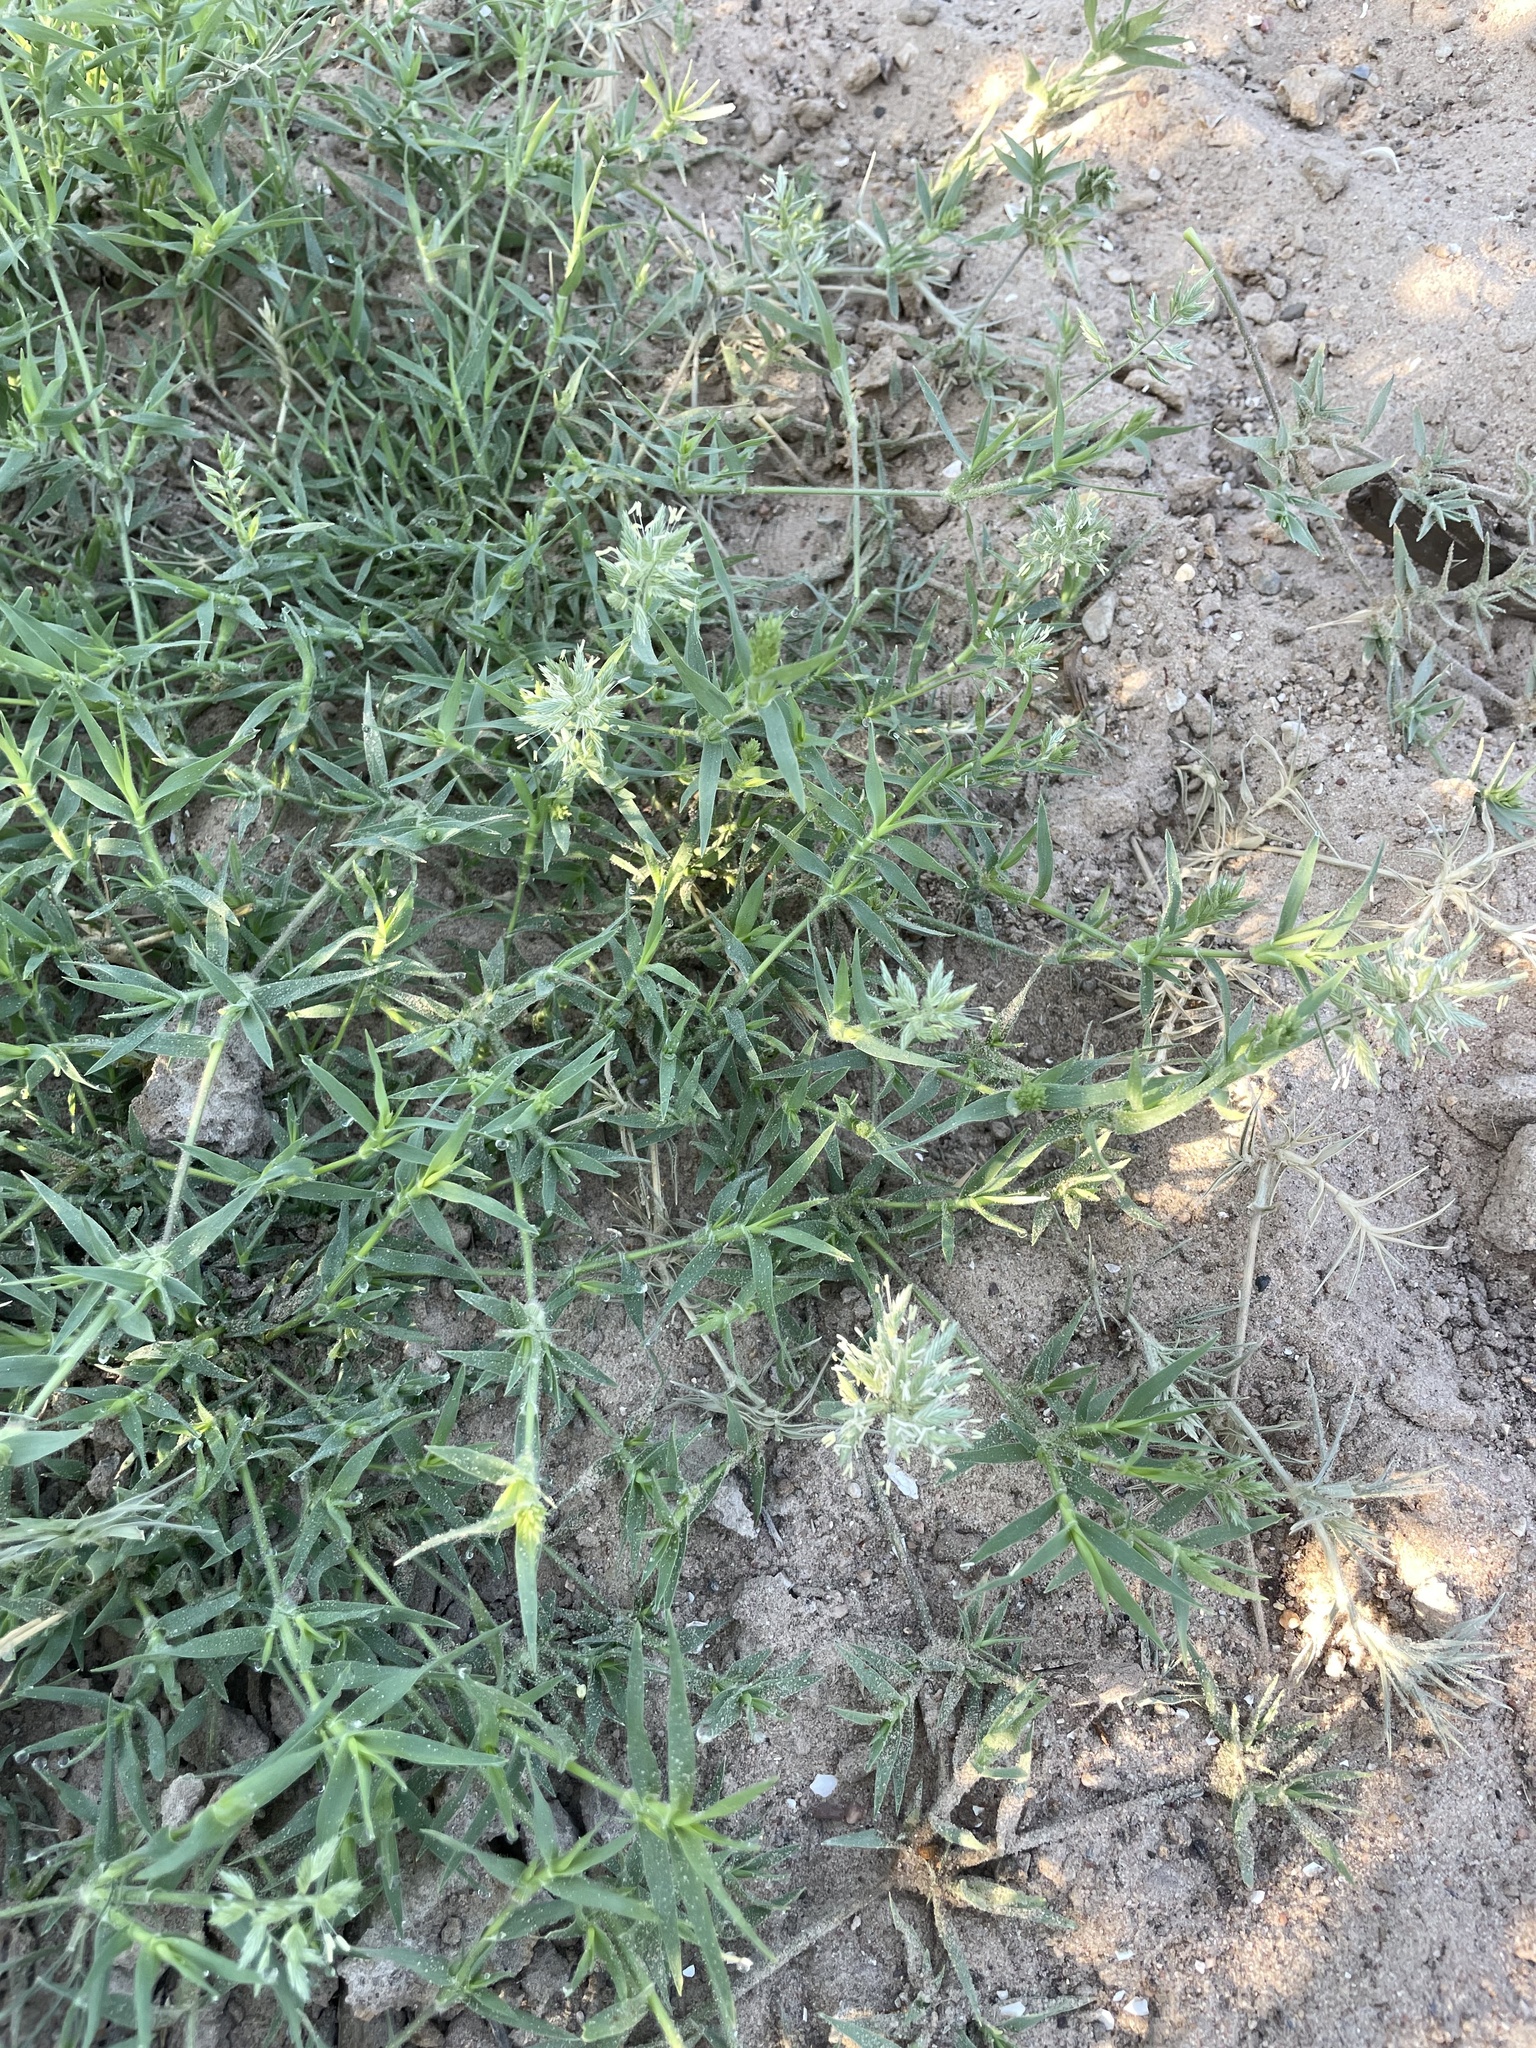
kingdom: Plantae
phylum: Tracheophyta
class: Liliopsida
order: Poales
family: Poaceae
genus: Eragrostis
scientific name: Eragrostis reptans
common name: Creeping love grass
